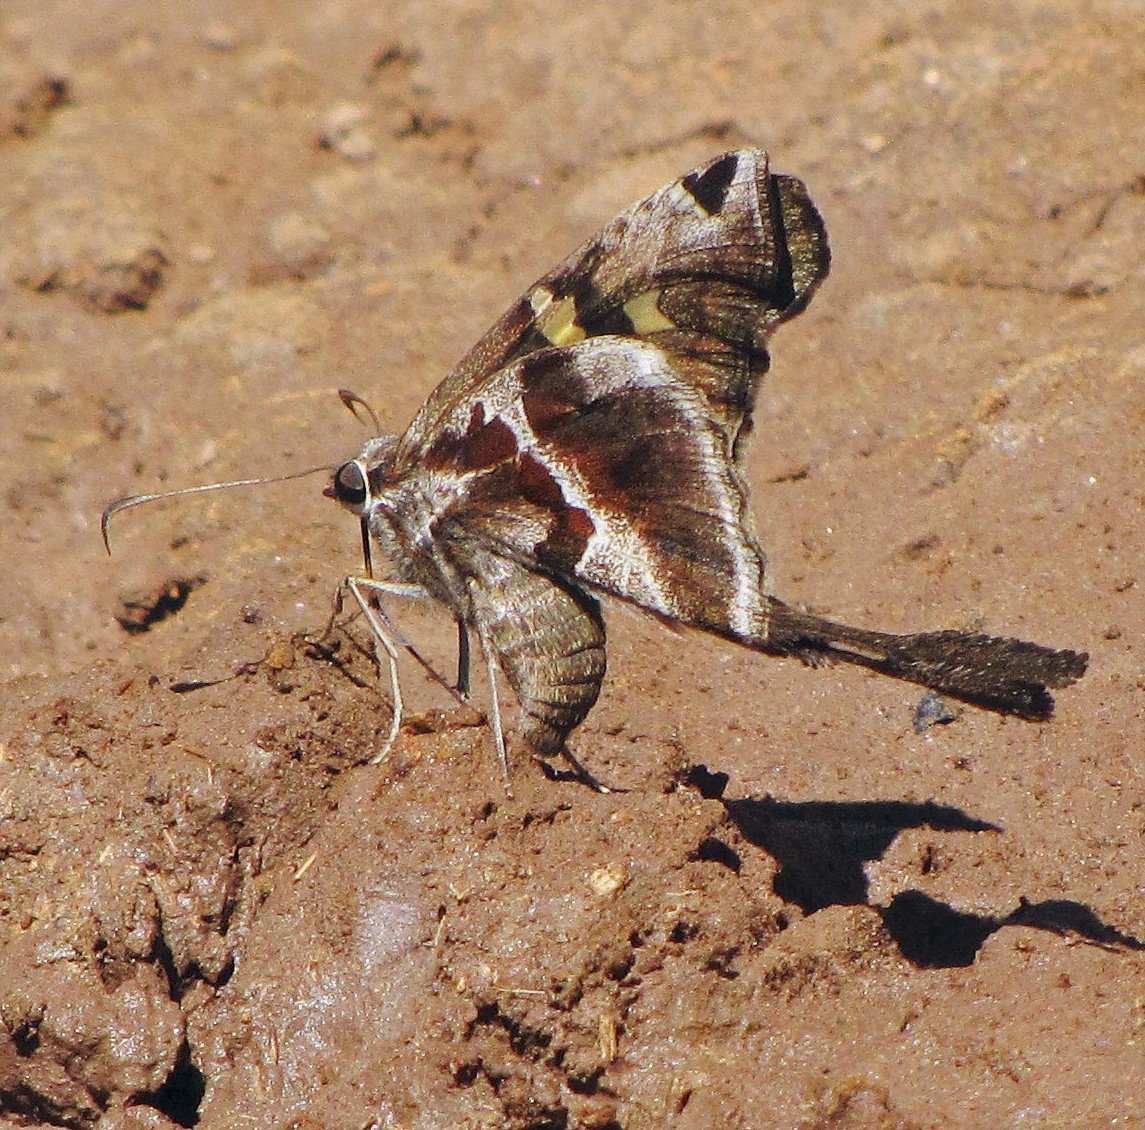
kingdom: Animalia
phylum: Arthropoda
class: Insecta
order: Lepidoptera
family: Hesperiidae
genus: Chioides
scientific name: Chioides catillus
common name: Silverbanded skipper
